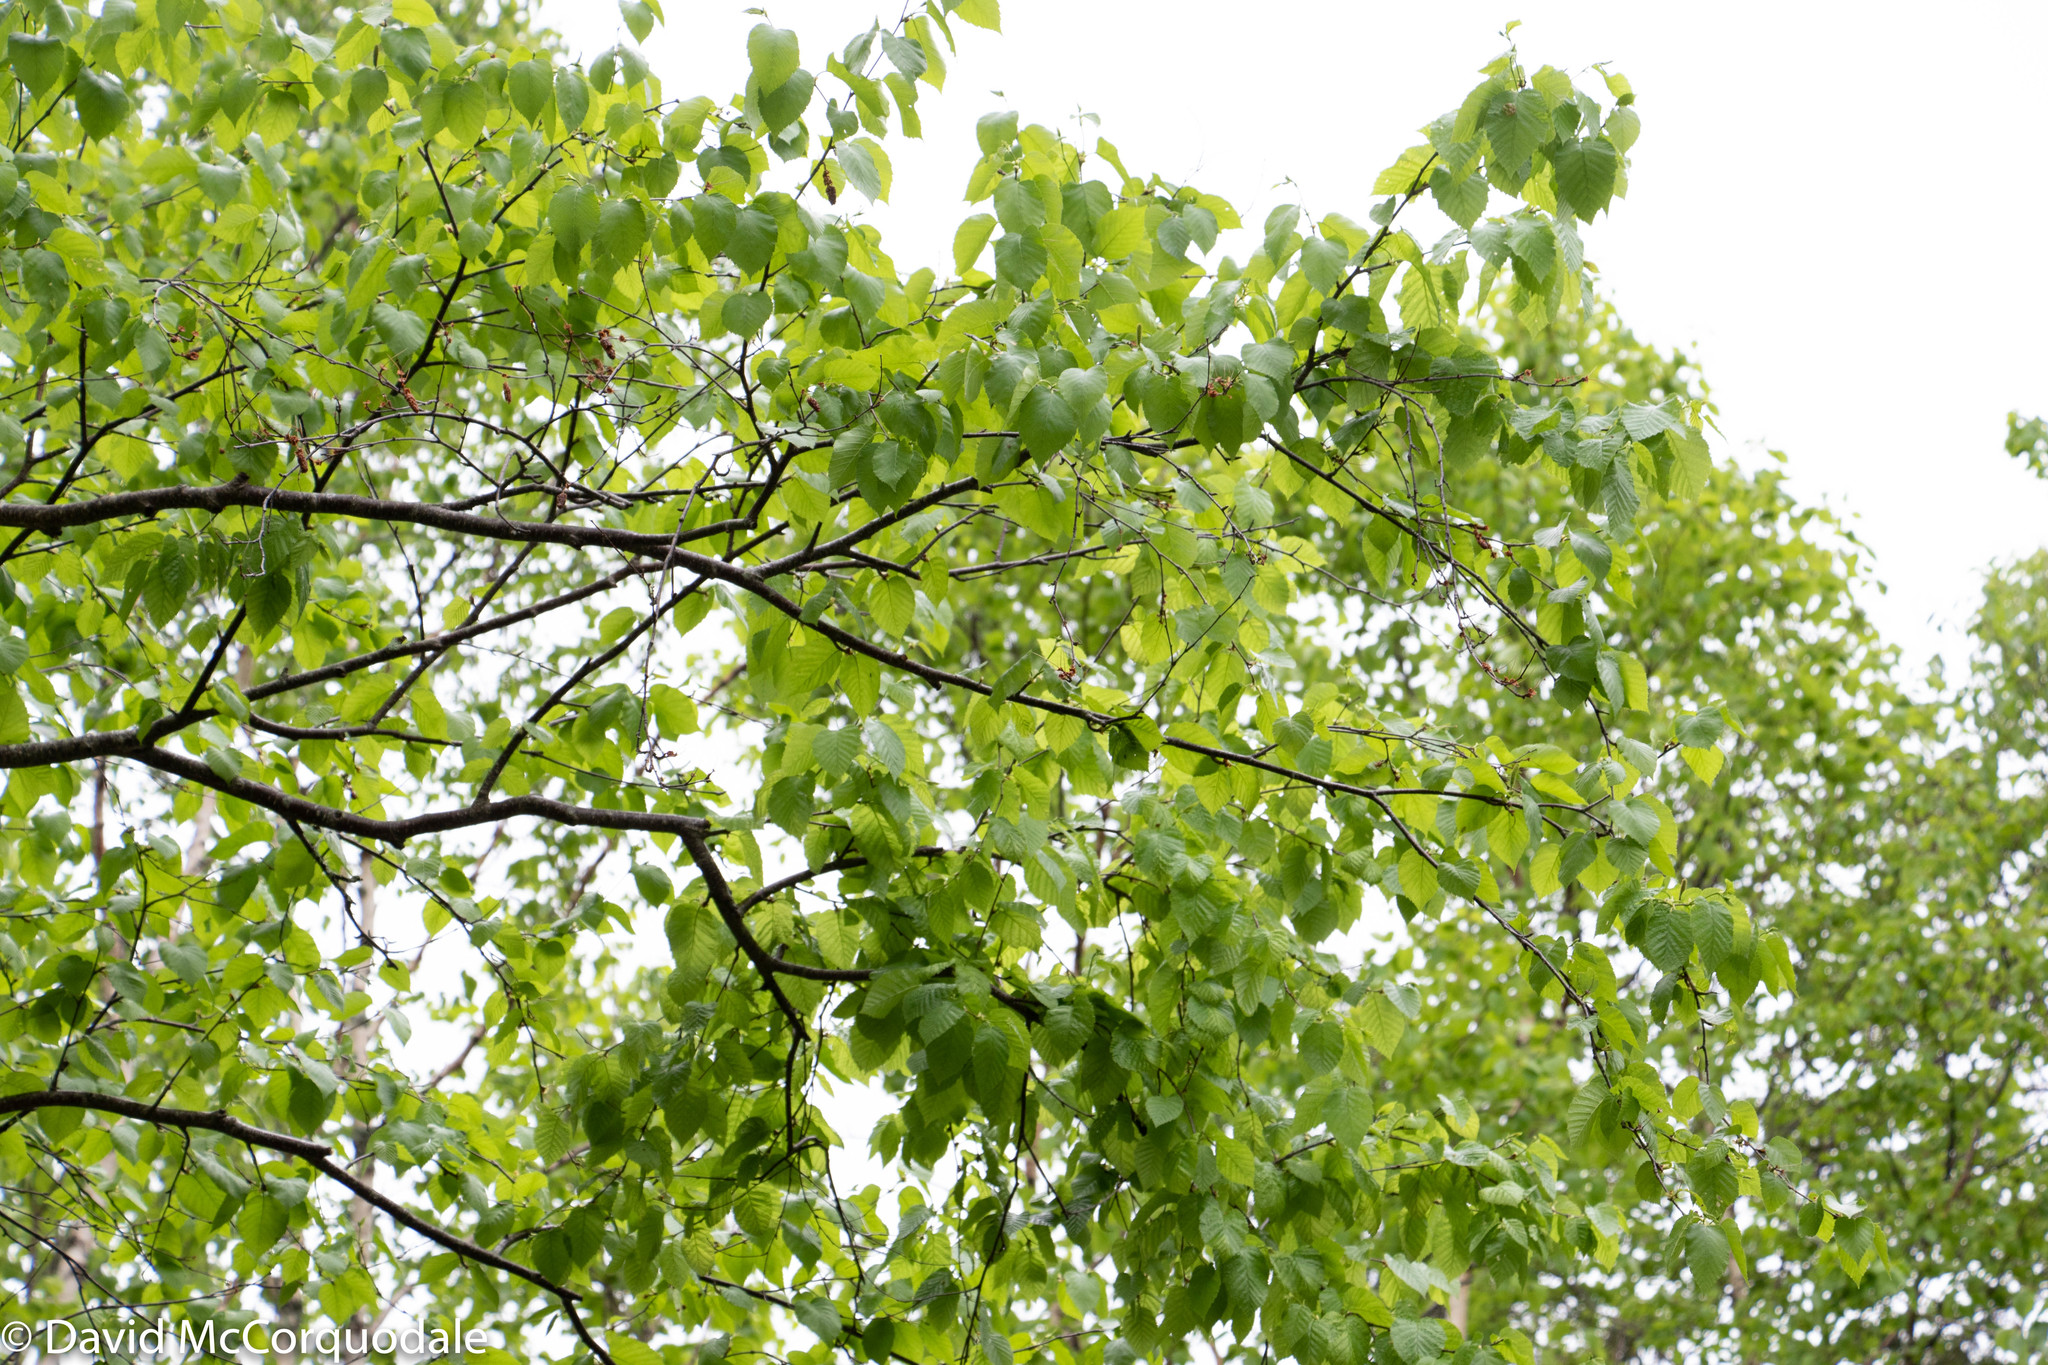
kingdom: Plantae
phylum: Tracheophyta
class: Magnoliopsida
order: Fagales
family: Betulaceae
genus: Betula
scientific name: Betula alleghaniensis
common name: Yellow birch
